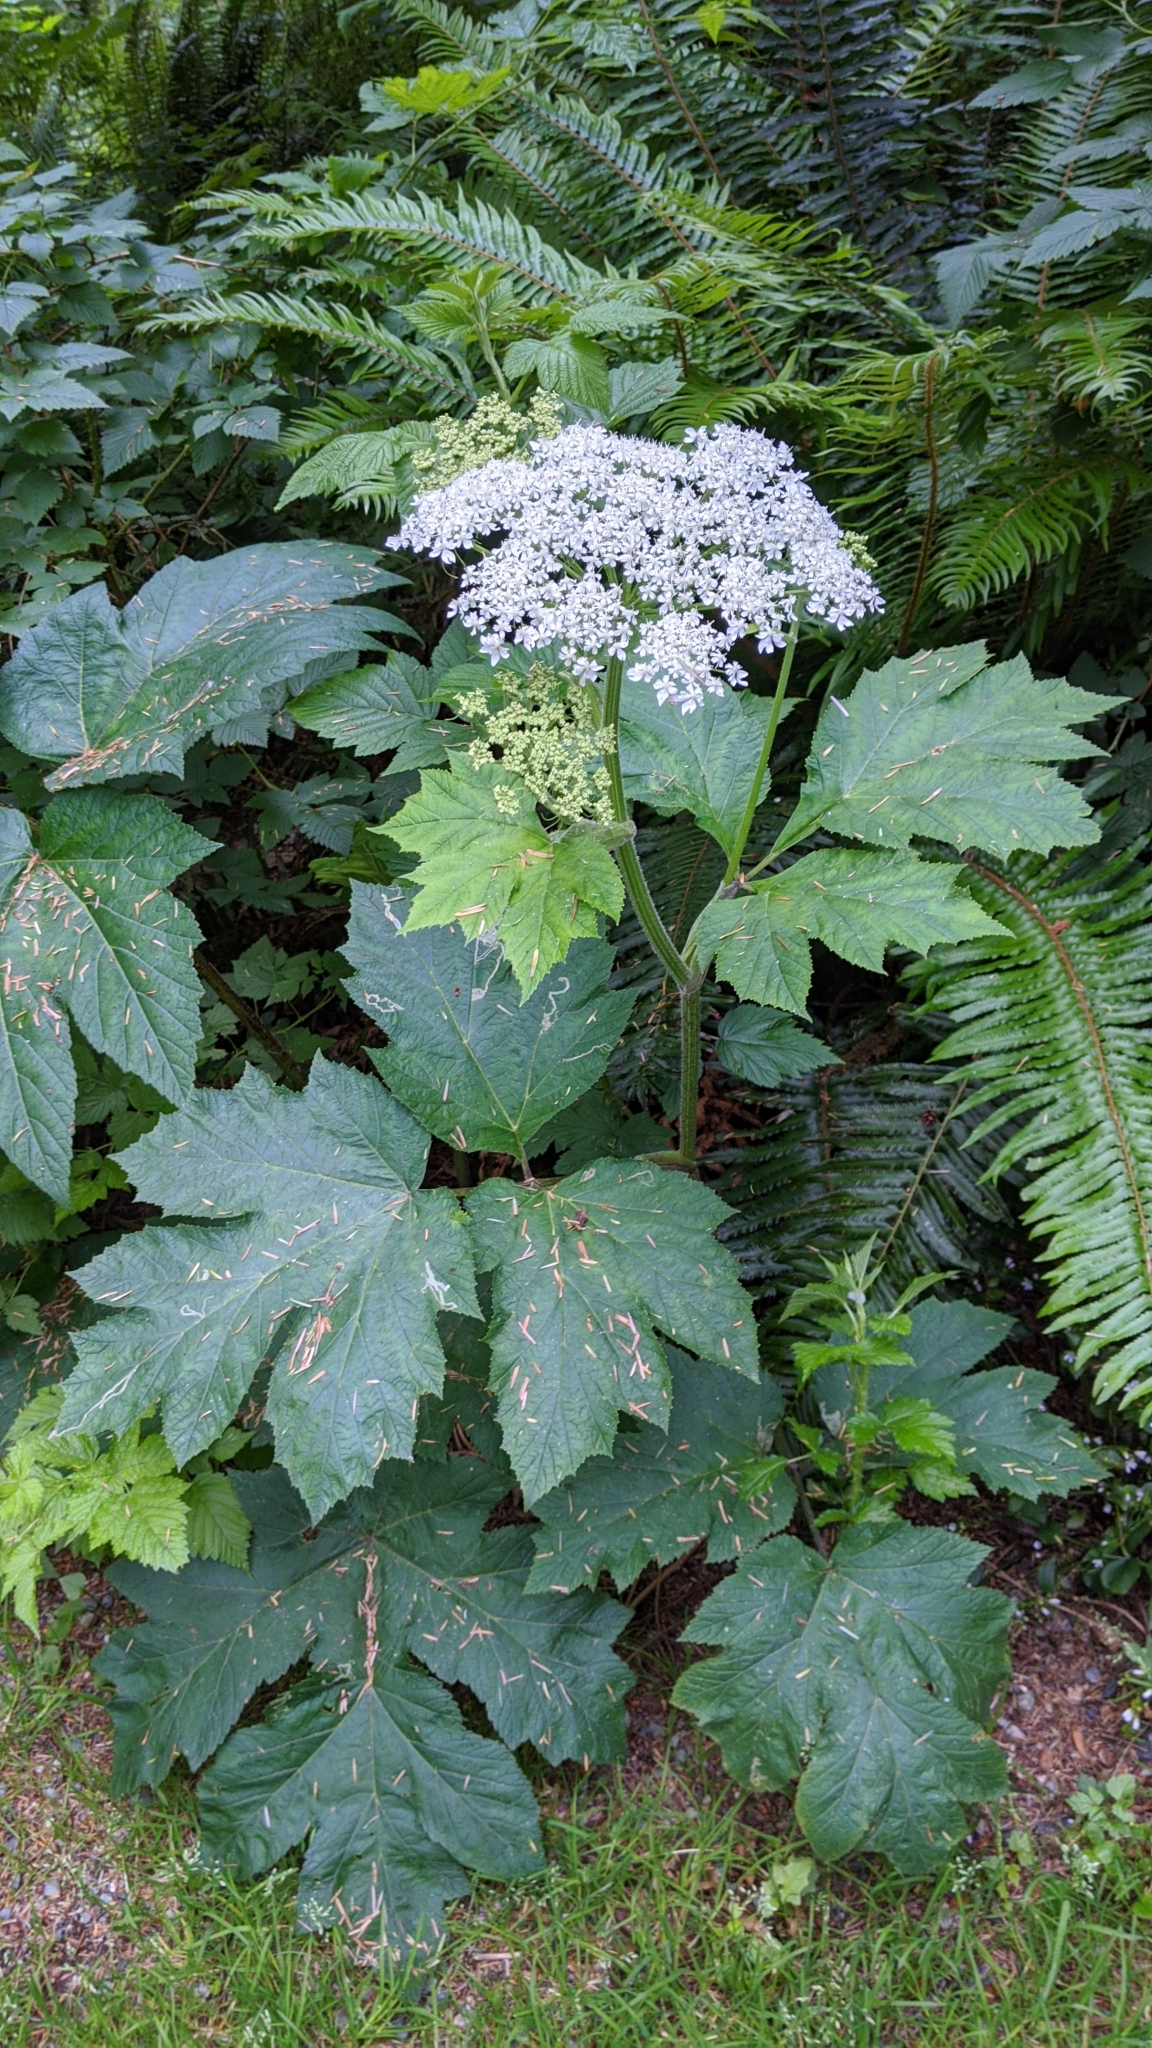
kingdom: Plantae
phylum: Tracheophyta
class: Magnoliopsida
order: Apiales
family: Apiaceae
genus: Heracleum
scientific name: Heracleum maximum
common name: American cow parsnip
